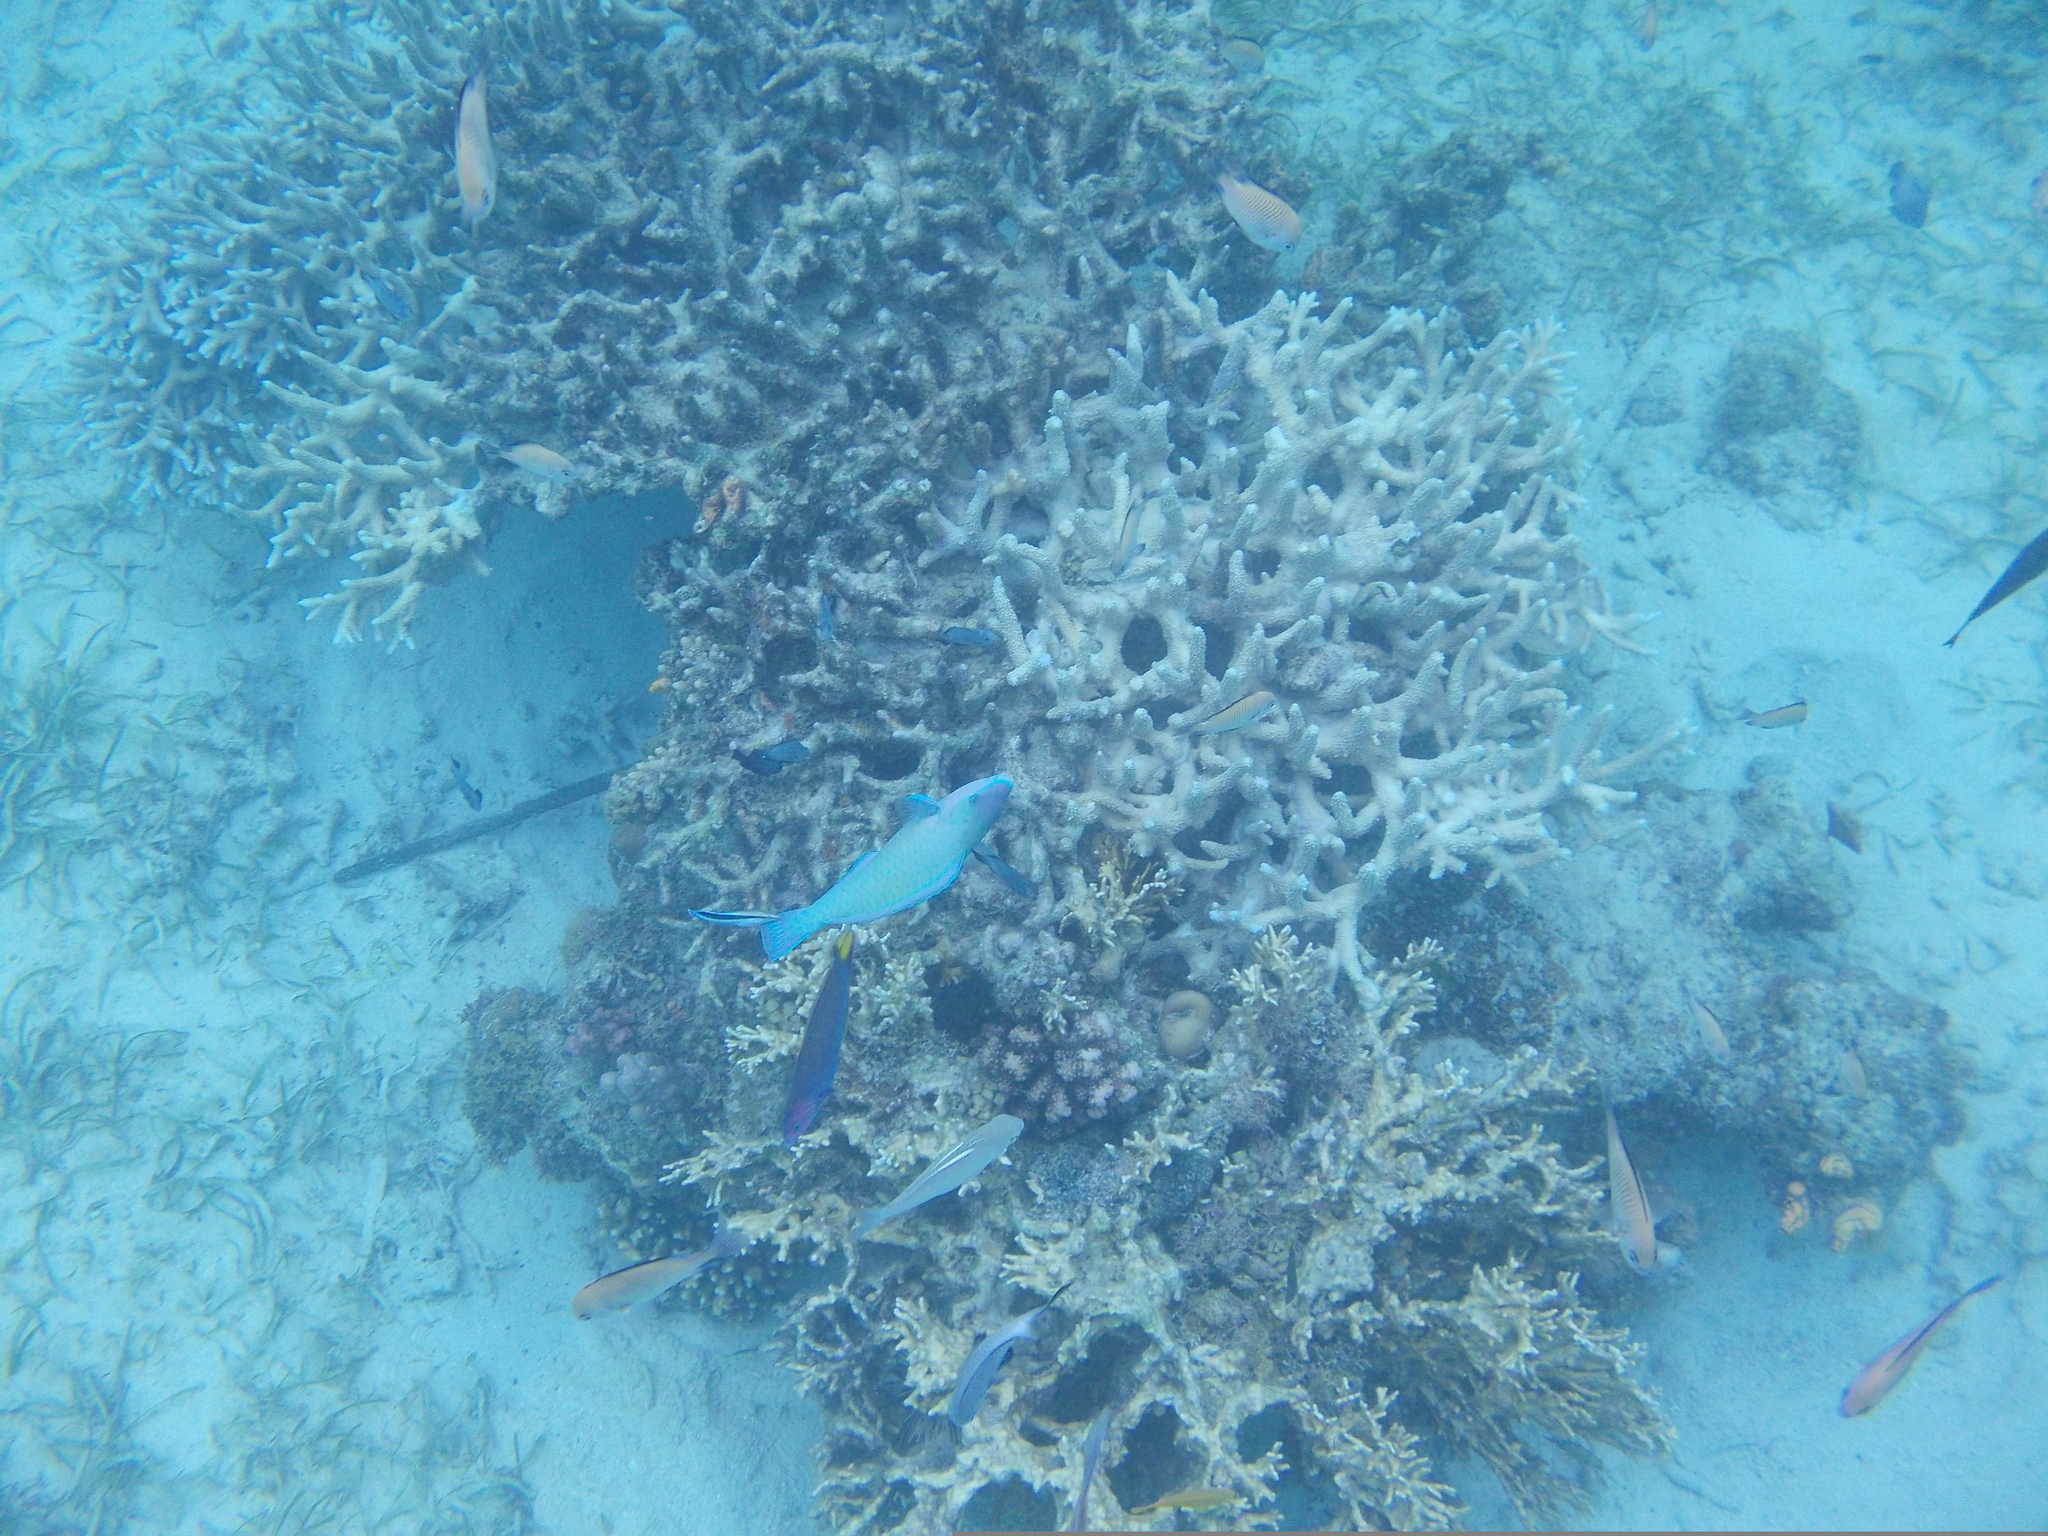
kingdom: Animalia
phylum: Chordata
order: Perciformes
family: Scaridae
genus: Scarus
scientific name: Scarus psittacus
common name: Palenose parrotfish
